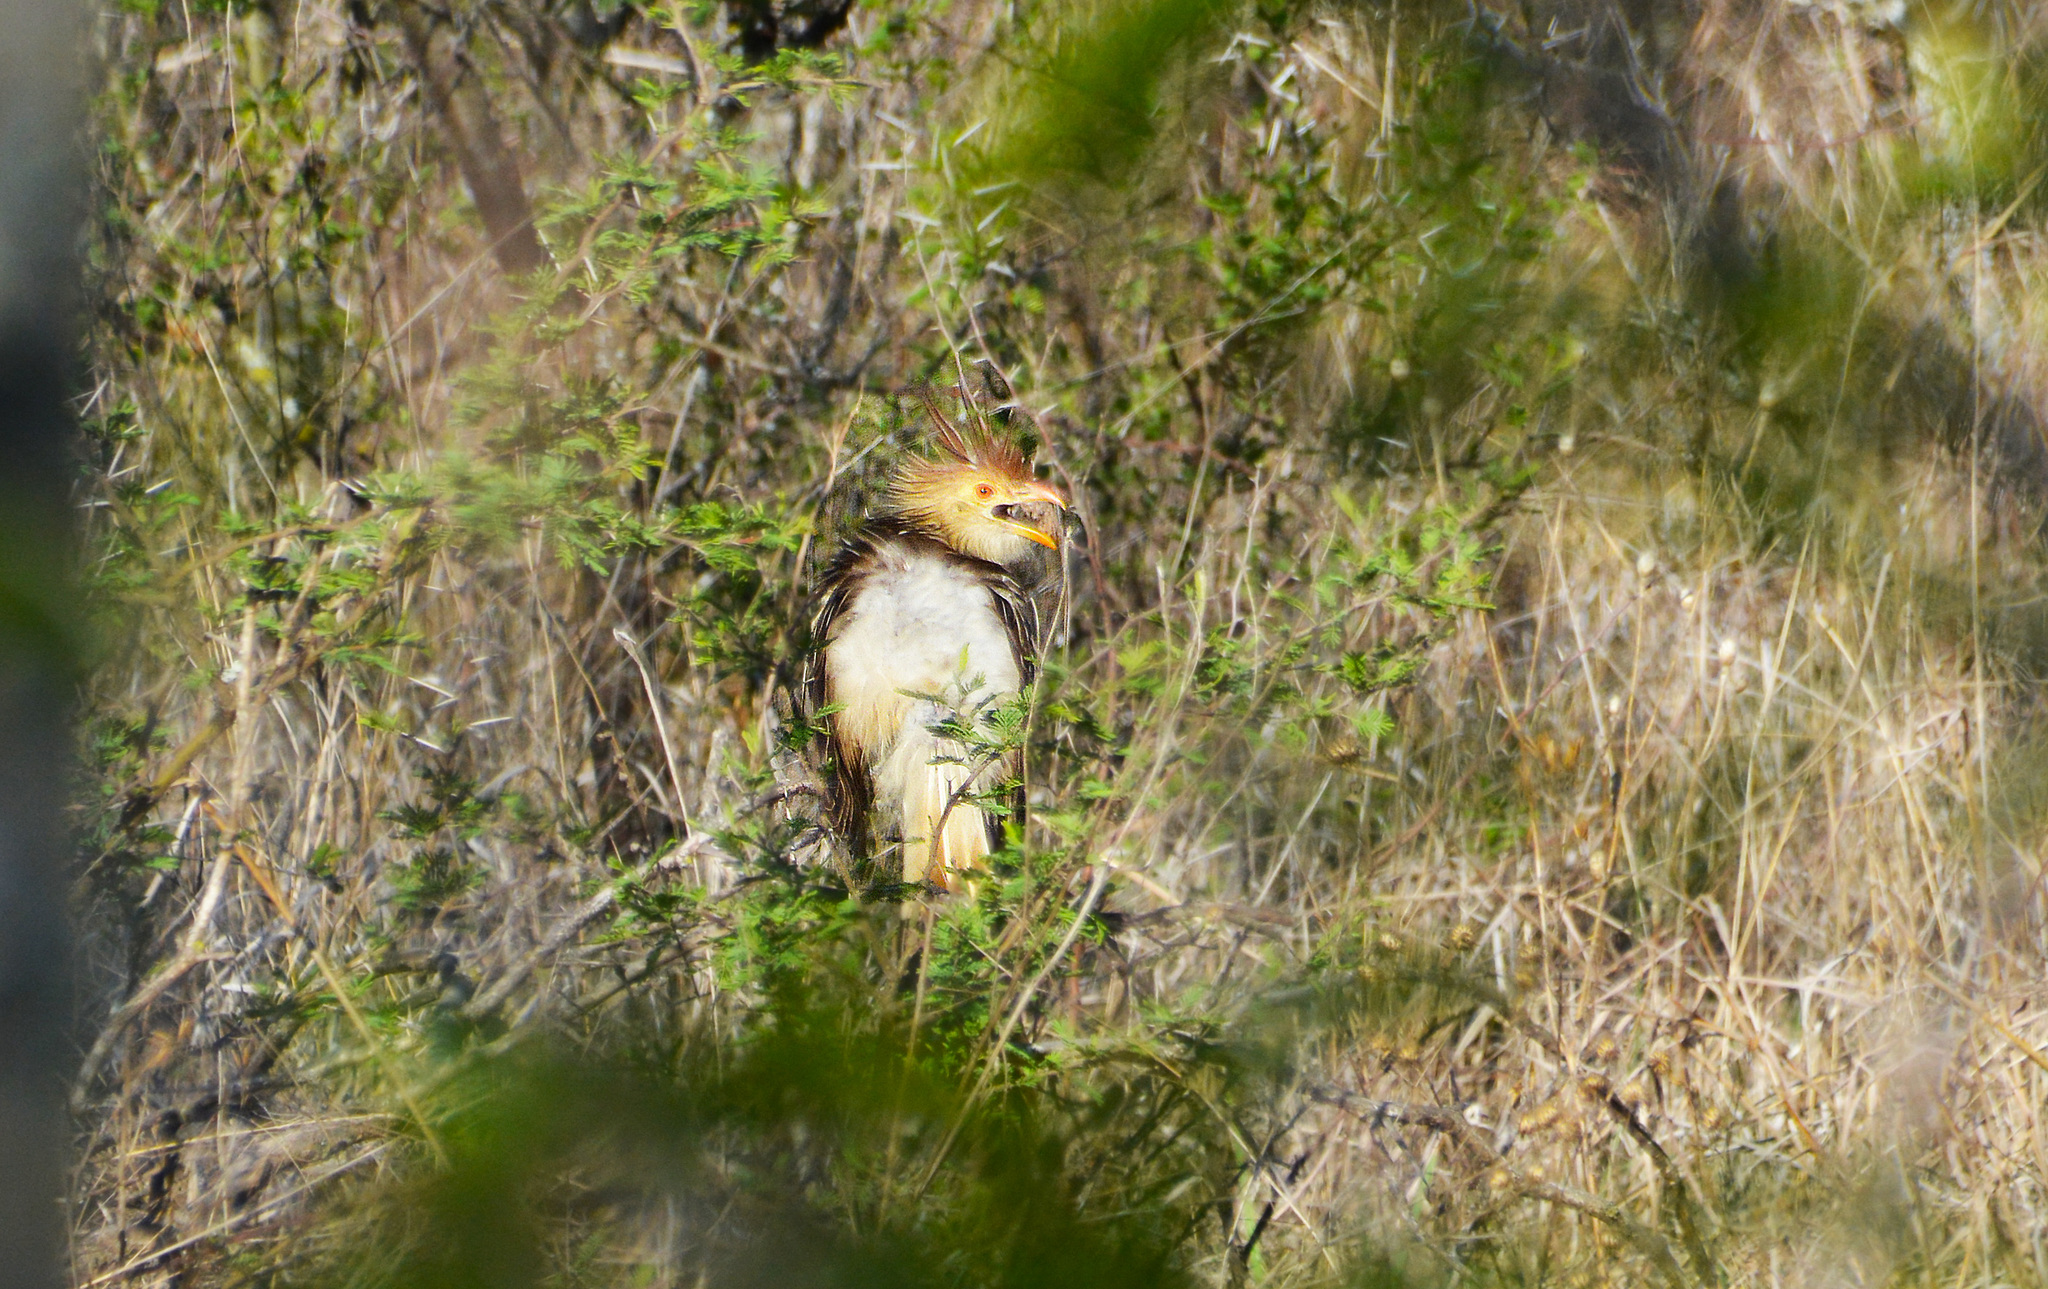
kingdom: Animalia
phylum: Chordata
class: Aves
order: Cuculiformes
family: Cuculidae
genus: Guira
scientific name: Guira guira
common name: Guira cuckoo
